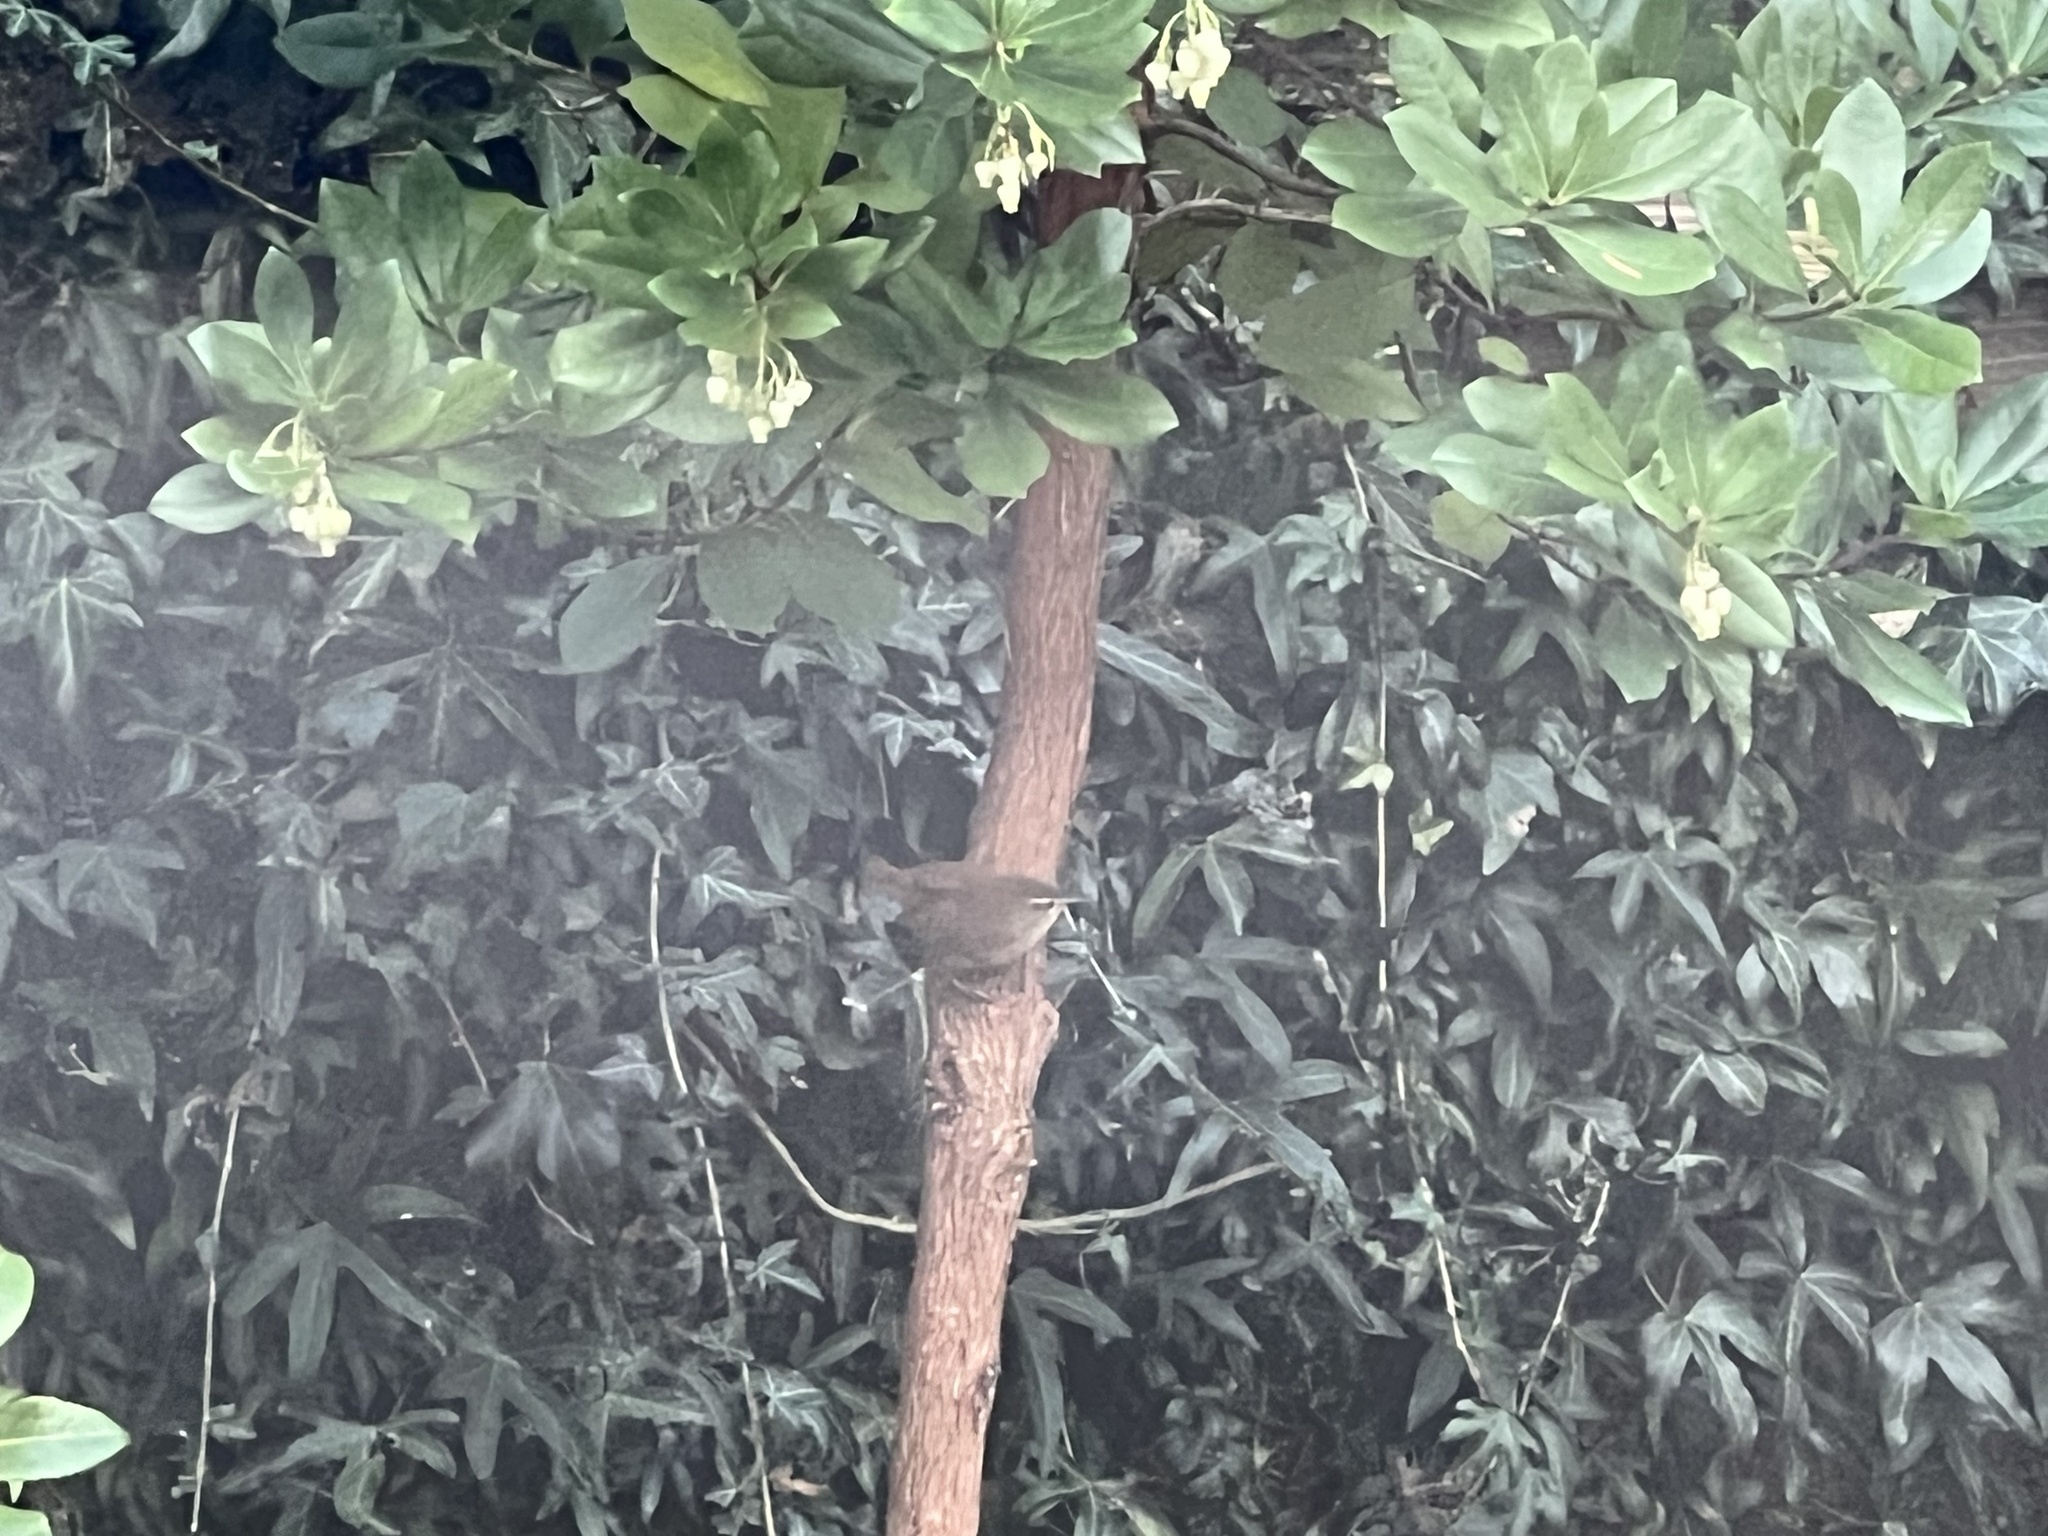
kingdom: Animalia
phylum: Chordata
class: Aves
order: Passeriformes
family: Troglodytidae
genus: Troglodytes
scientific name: Troglodytes troglodytes
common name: Eurasian wren
